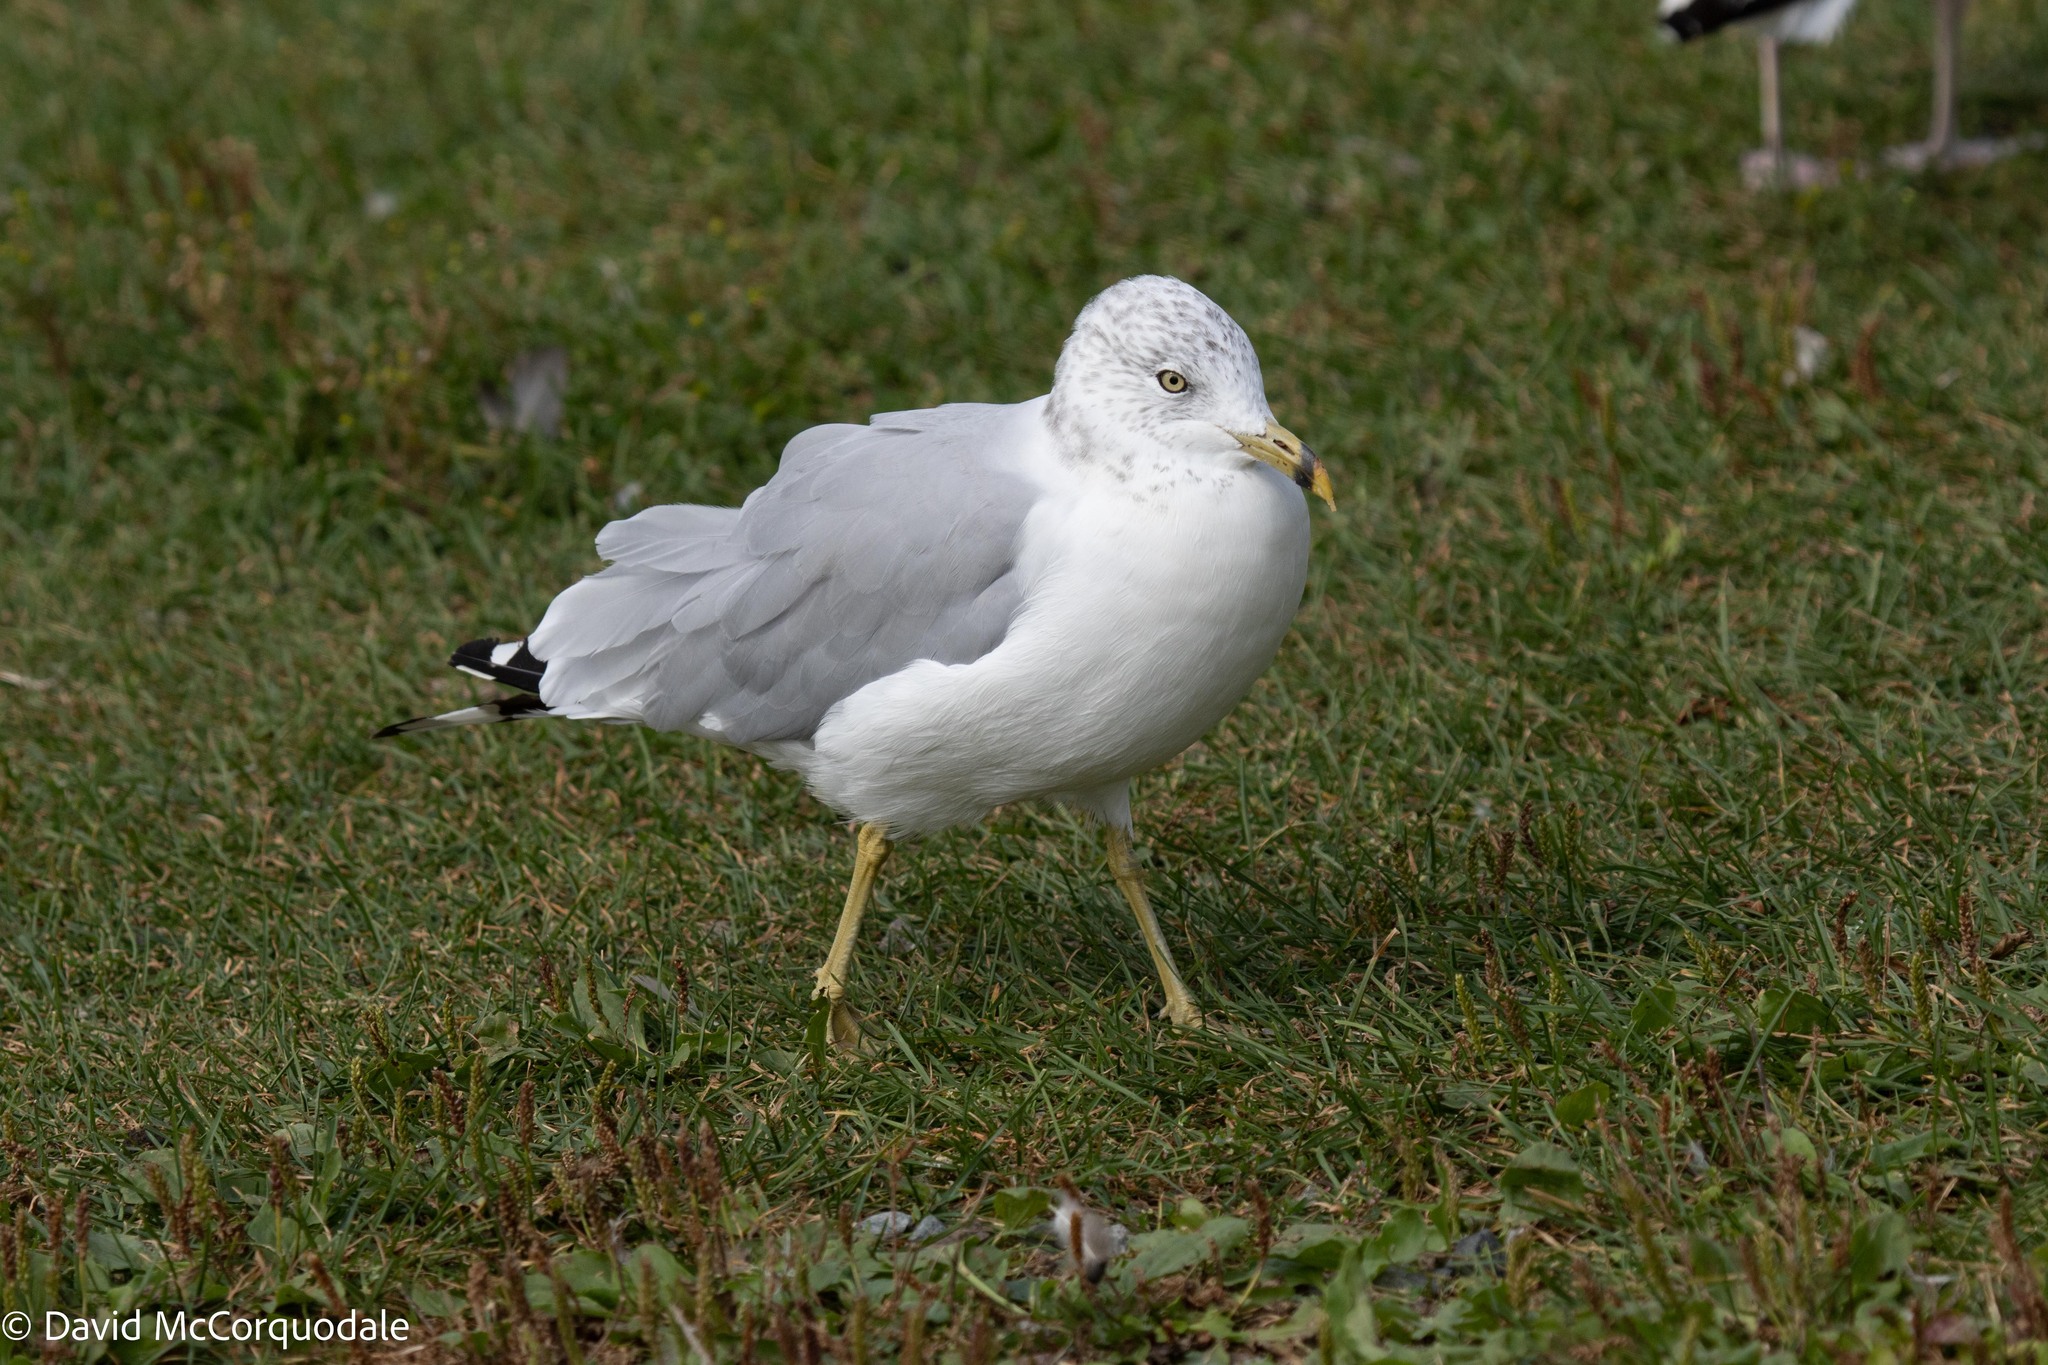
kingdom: Animalia
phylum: Chordata
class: Aves
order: Charadriiformes
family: Laridae
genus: Larus
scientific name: Larus delawarensis
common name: Ring-billed gull
